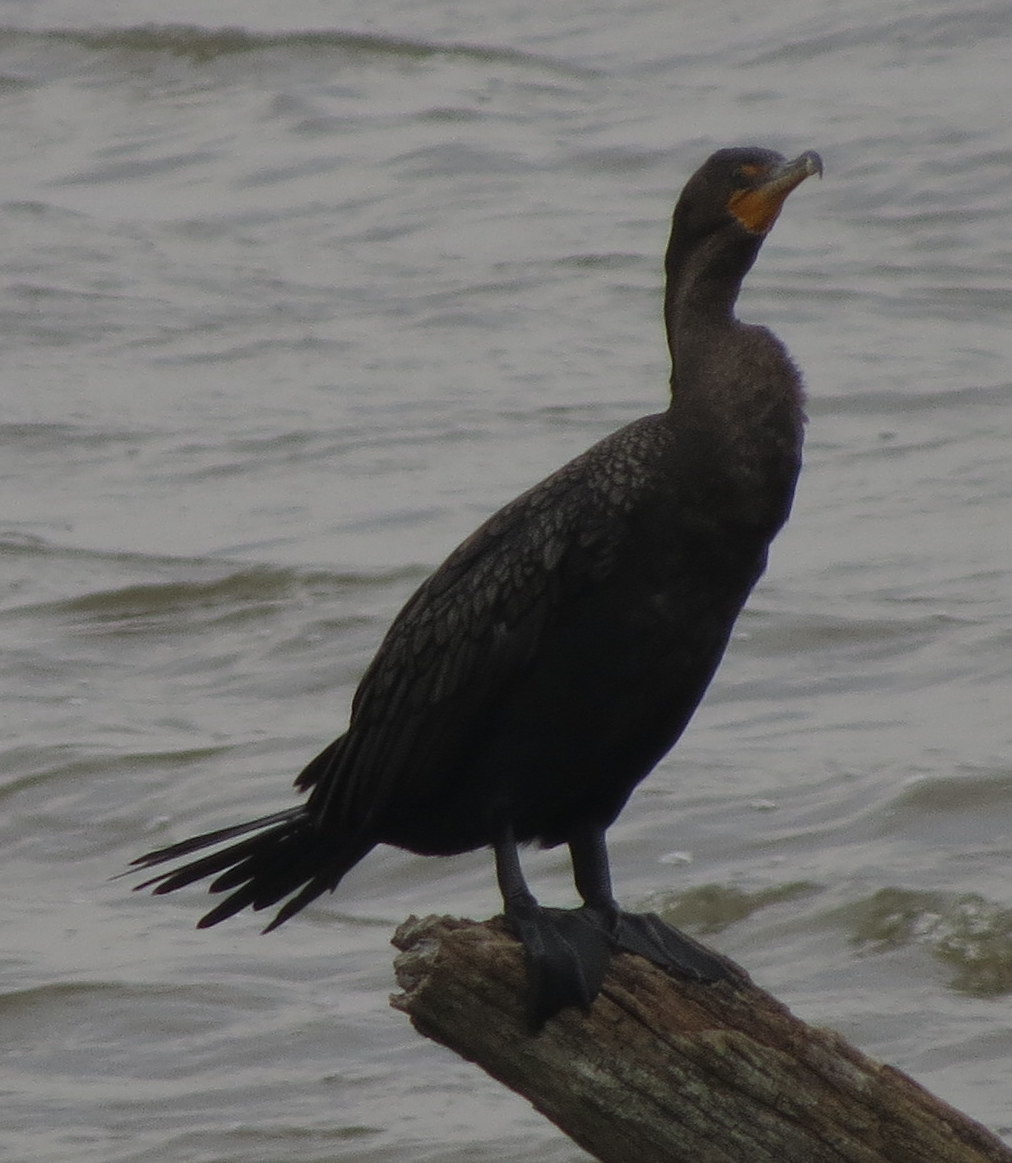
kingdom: Animalia
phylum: Chordata
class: Aves
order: Suliformes
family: Phalacrocoracidae
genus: Phalacrocorax
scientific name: Phalacrocorax auritus
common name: Double-crested cormorant
